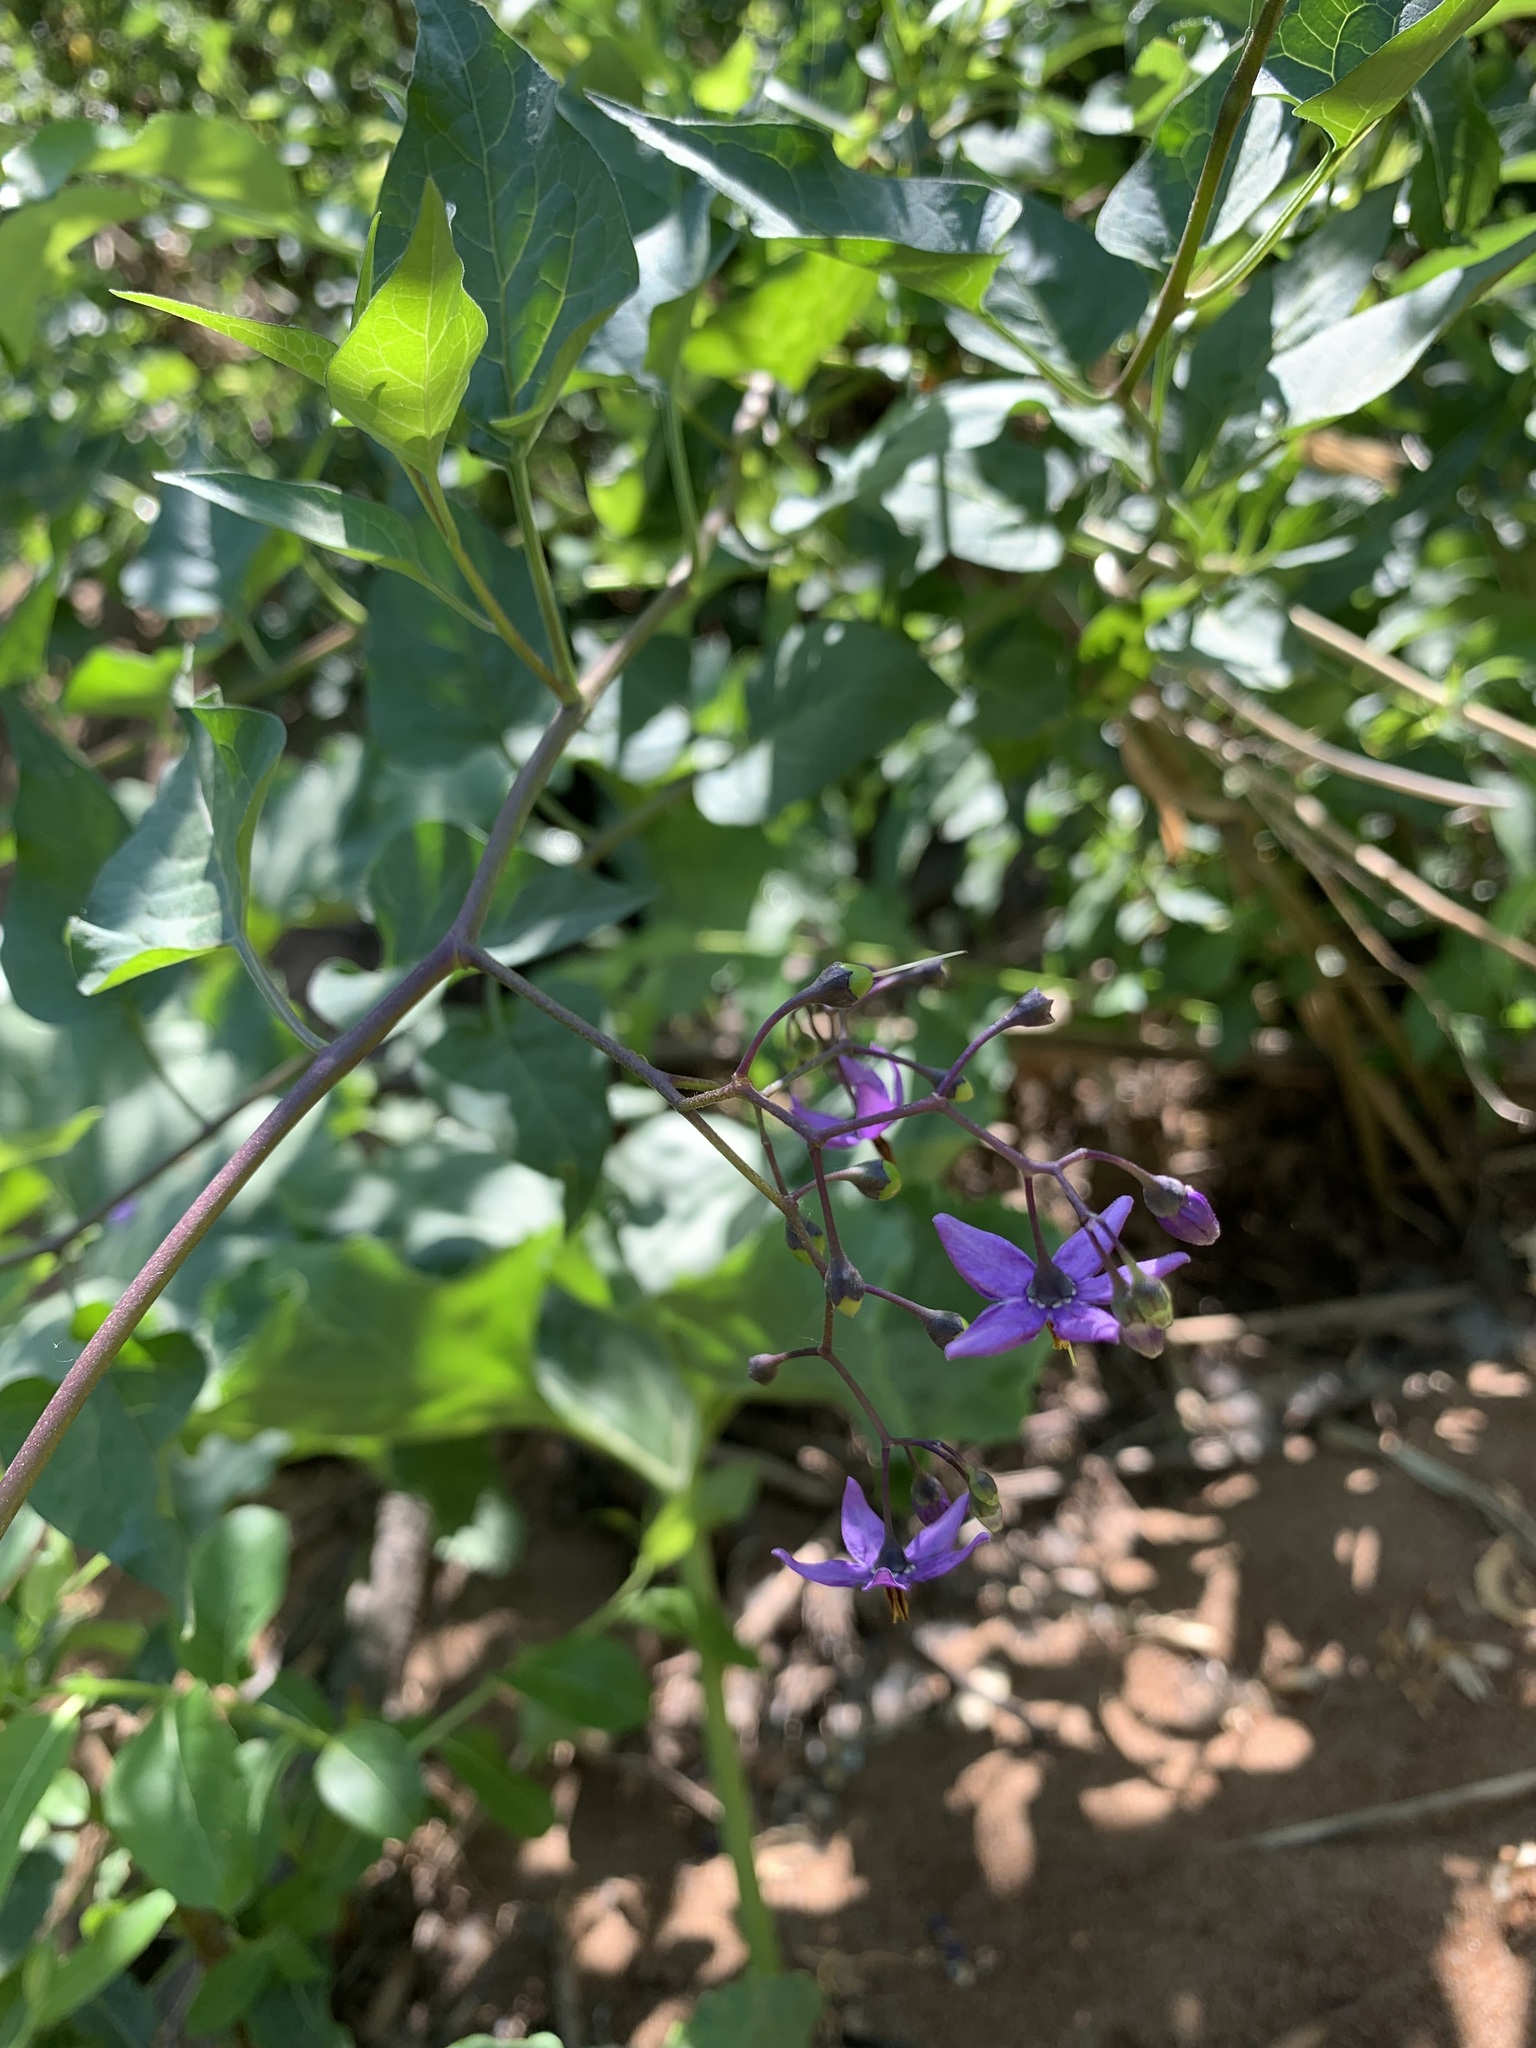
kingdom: Plantae
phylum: Tracheophyta
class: Magnoliopsida
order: Solanales
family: Solanaceae
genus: Solanum
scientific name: Solanum dulcamara
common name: Climbing nightshade
